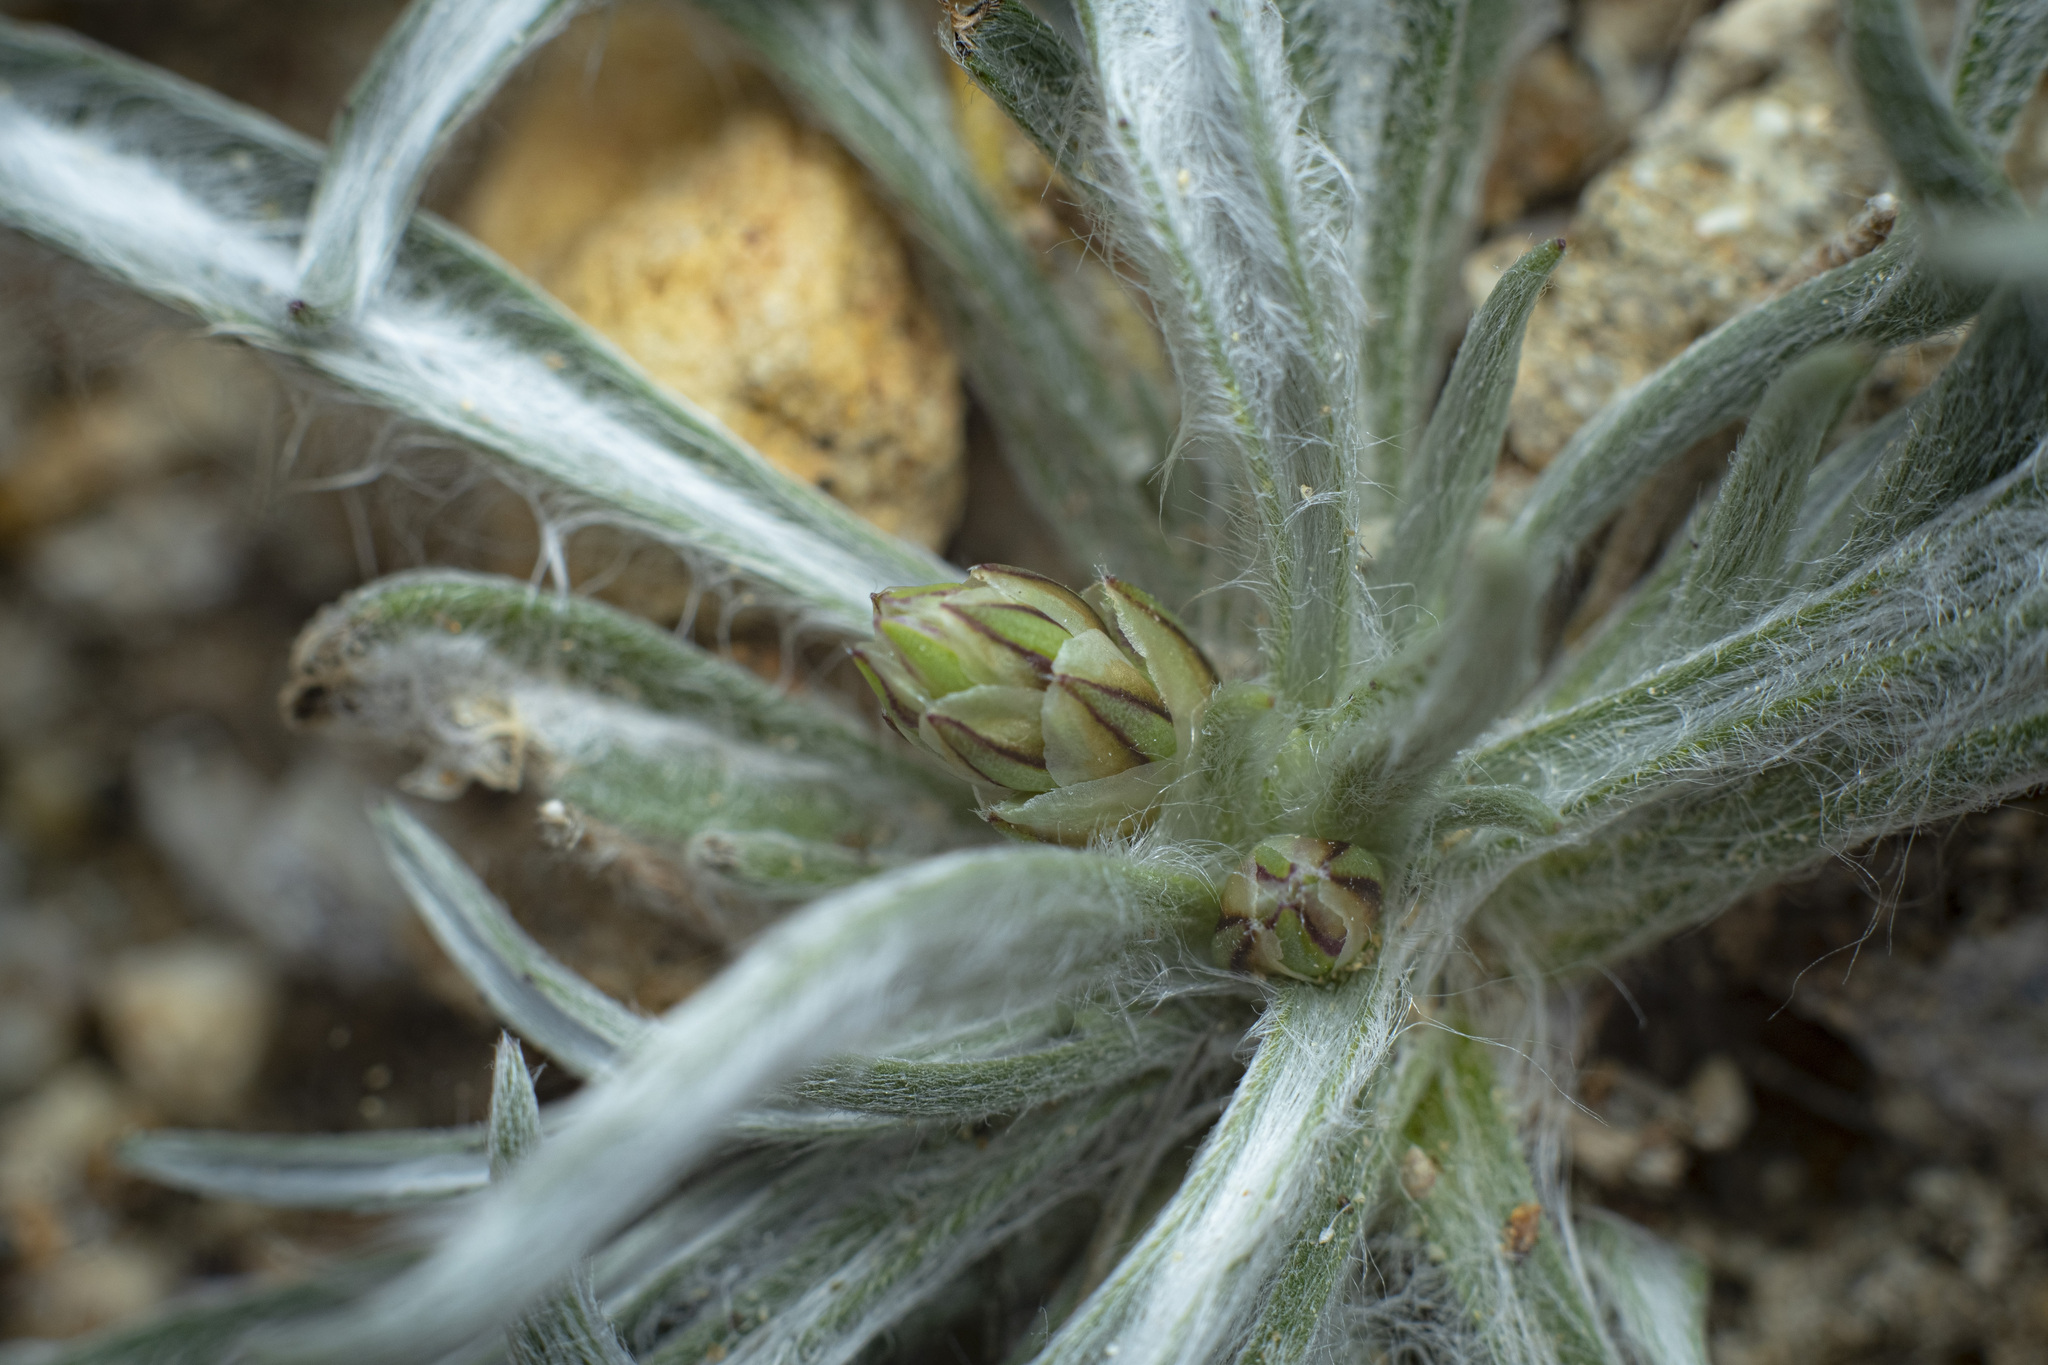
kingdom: Plantae
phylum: Tracheophyta
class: Magnoliopsida
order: Lamiales
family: Plantaginaceae
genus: Plantago
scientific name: Plantago ovata
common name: Blond plantain
